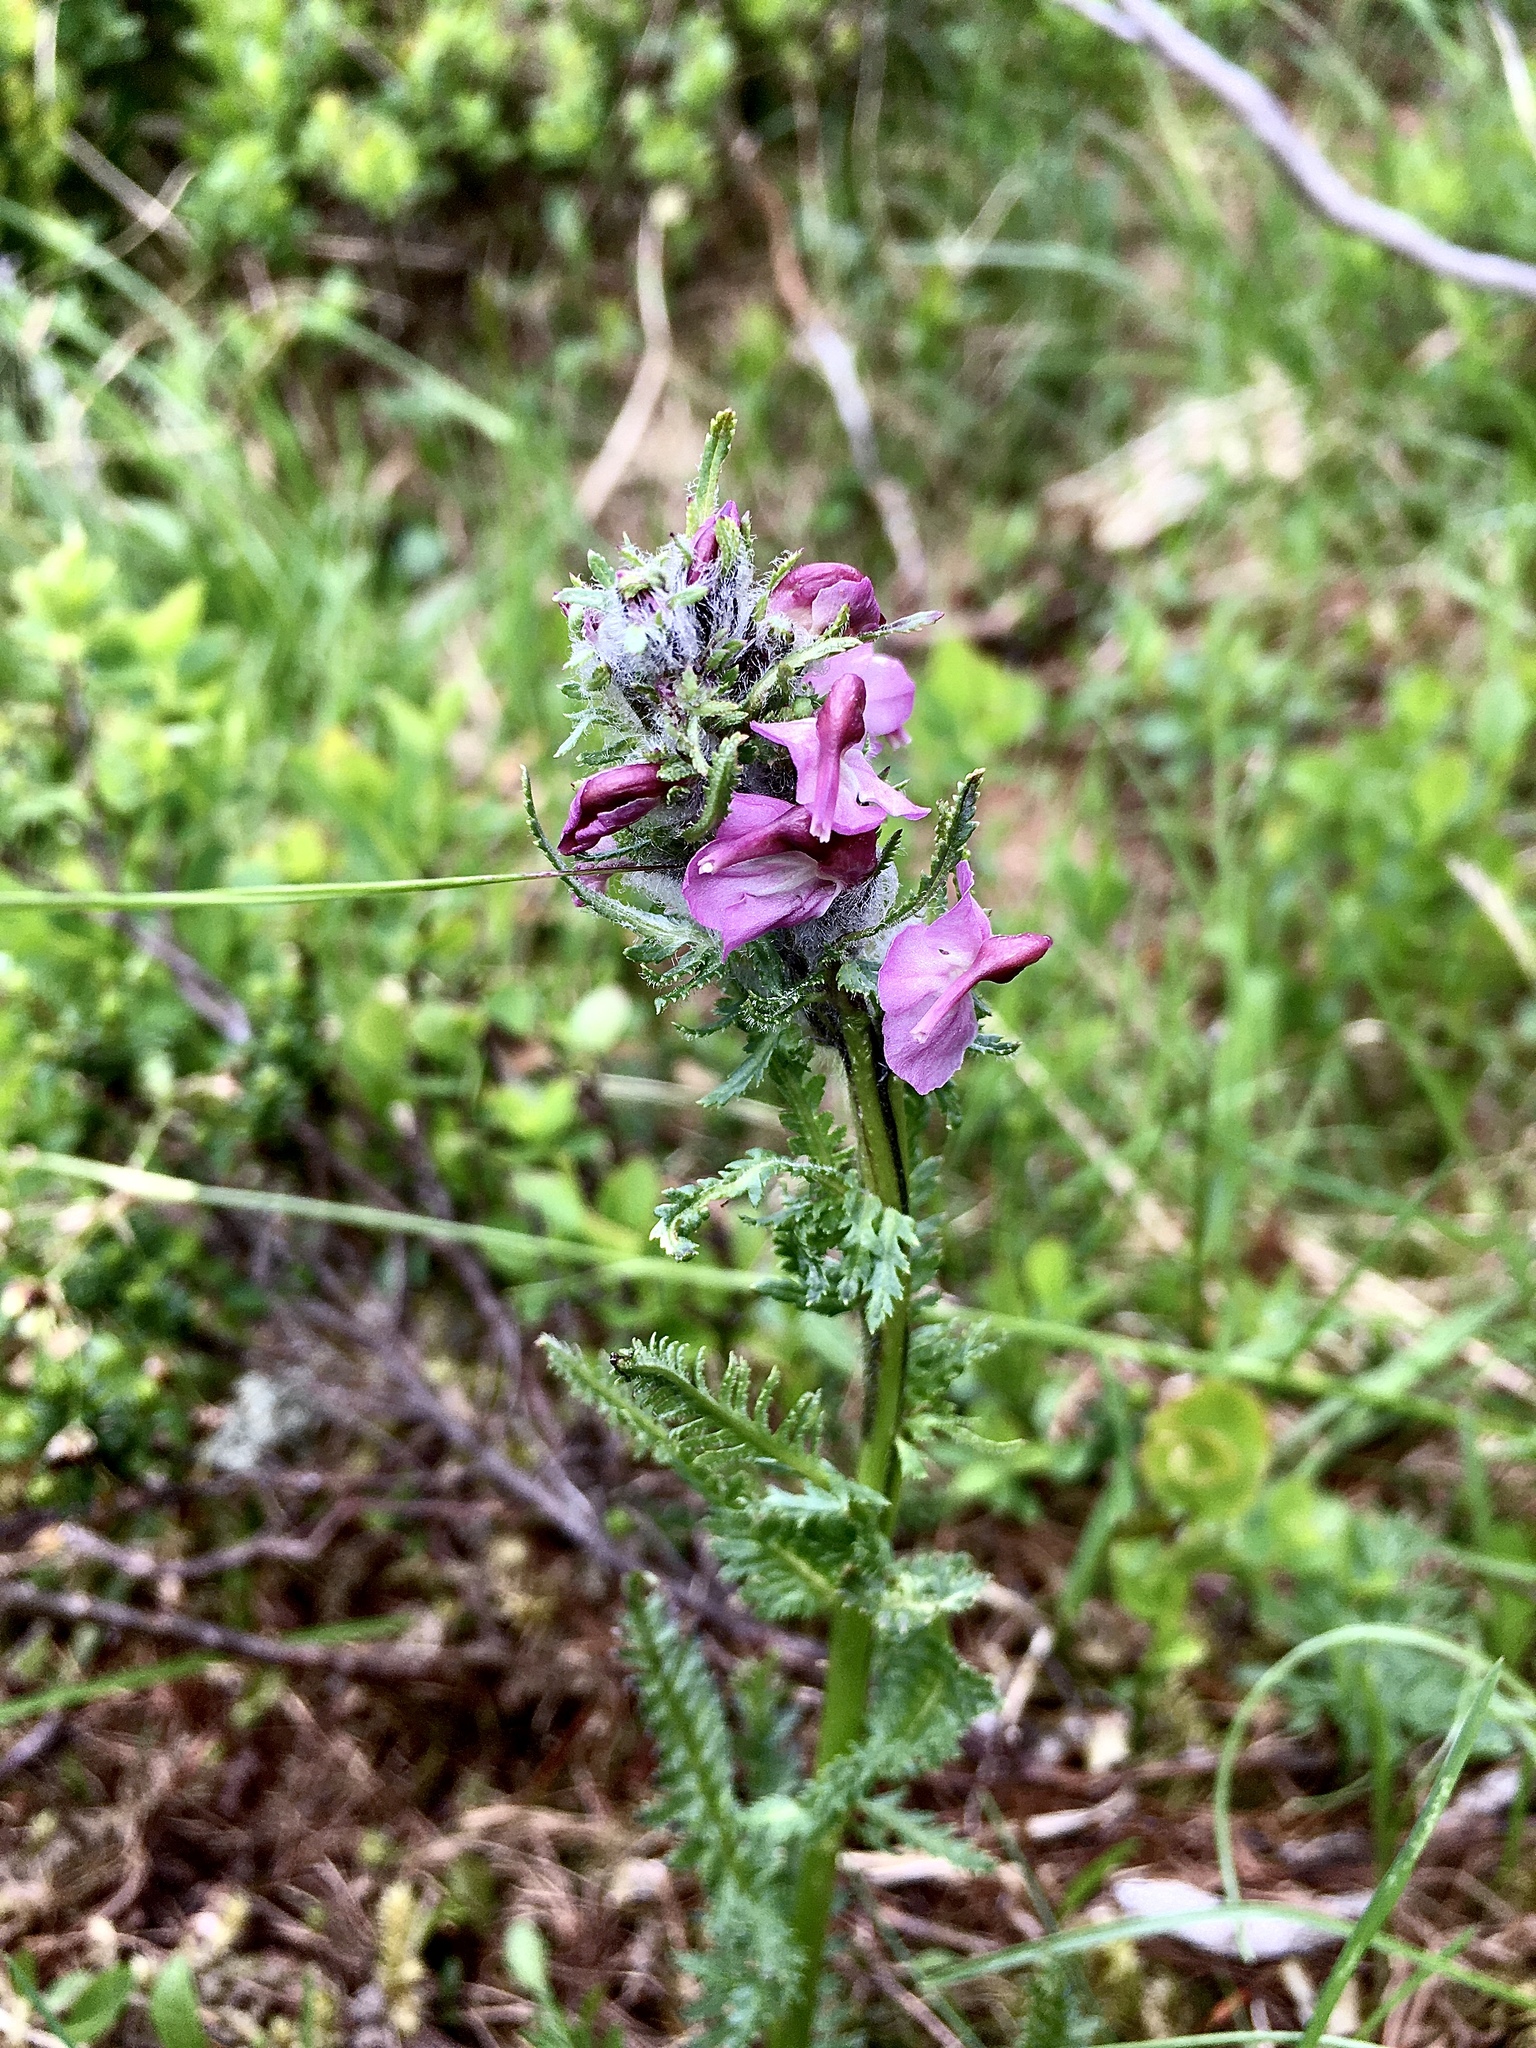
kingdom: Plantae
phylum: Tracheophyta
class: Magnoliopsida
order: Lamiales
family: Orobanchaceae
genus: Pedicularis
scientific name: Pedicularis rostratospicata
